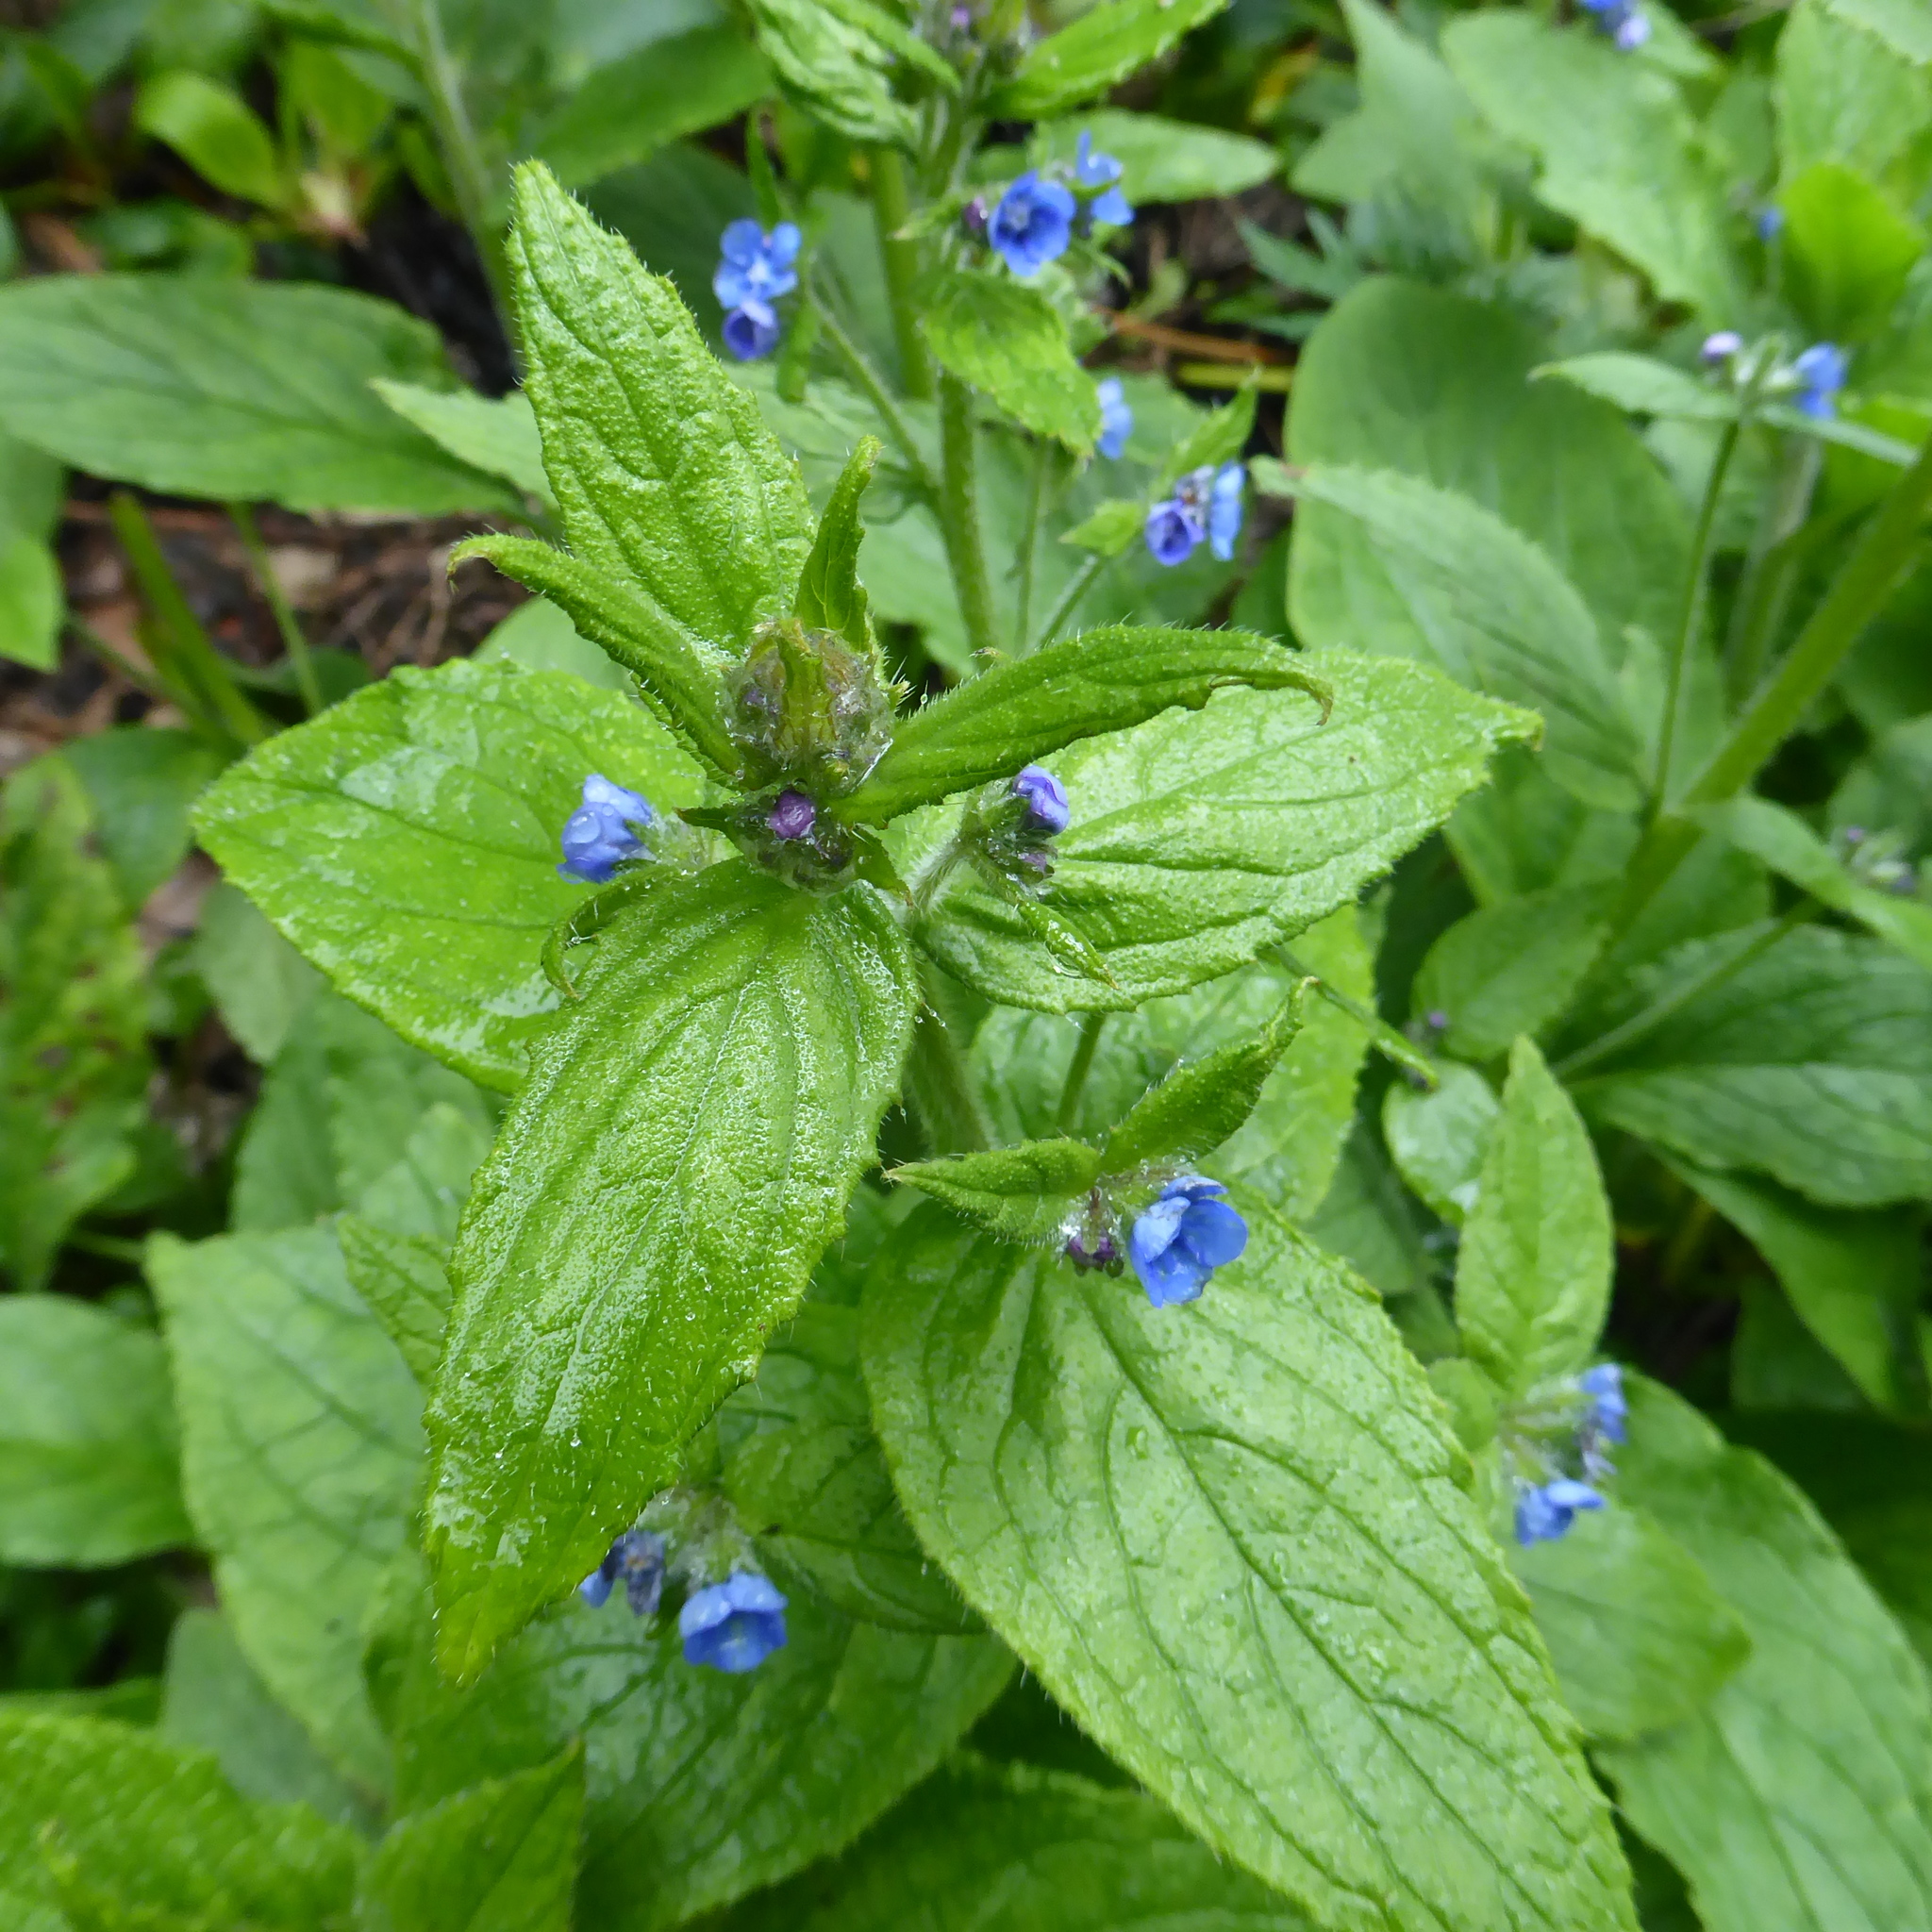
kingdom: Plantae
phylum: Tracheophyta
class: Magnoliopsida
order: Boraginales
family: Boraginaceae
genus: Pentaglottis
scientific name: Pentaglottis sempervirens
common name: Green alkanet
